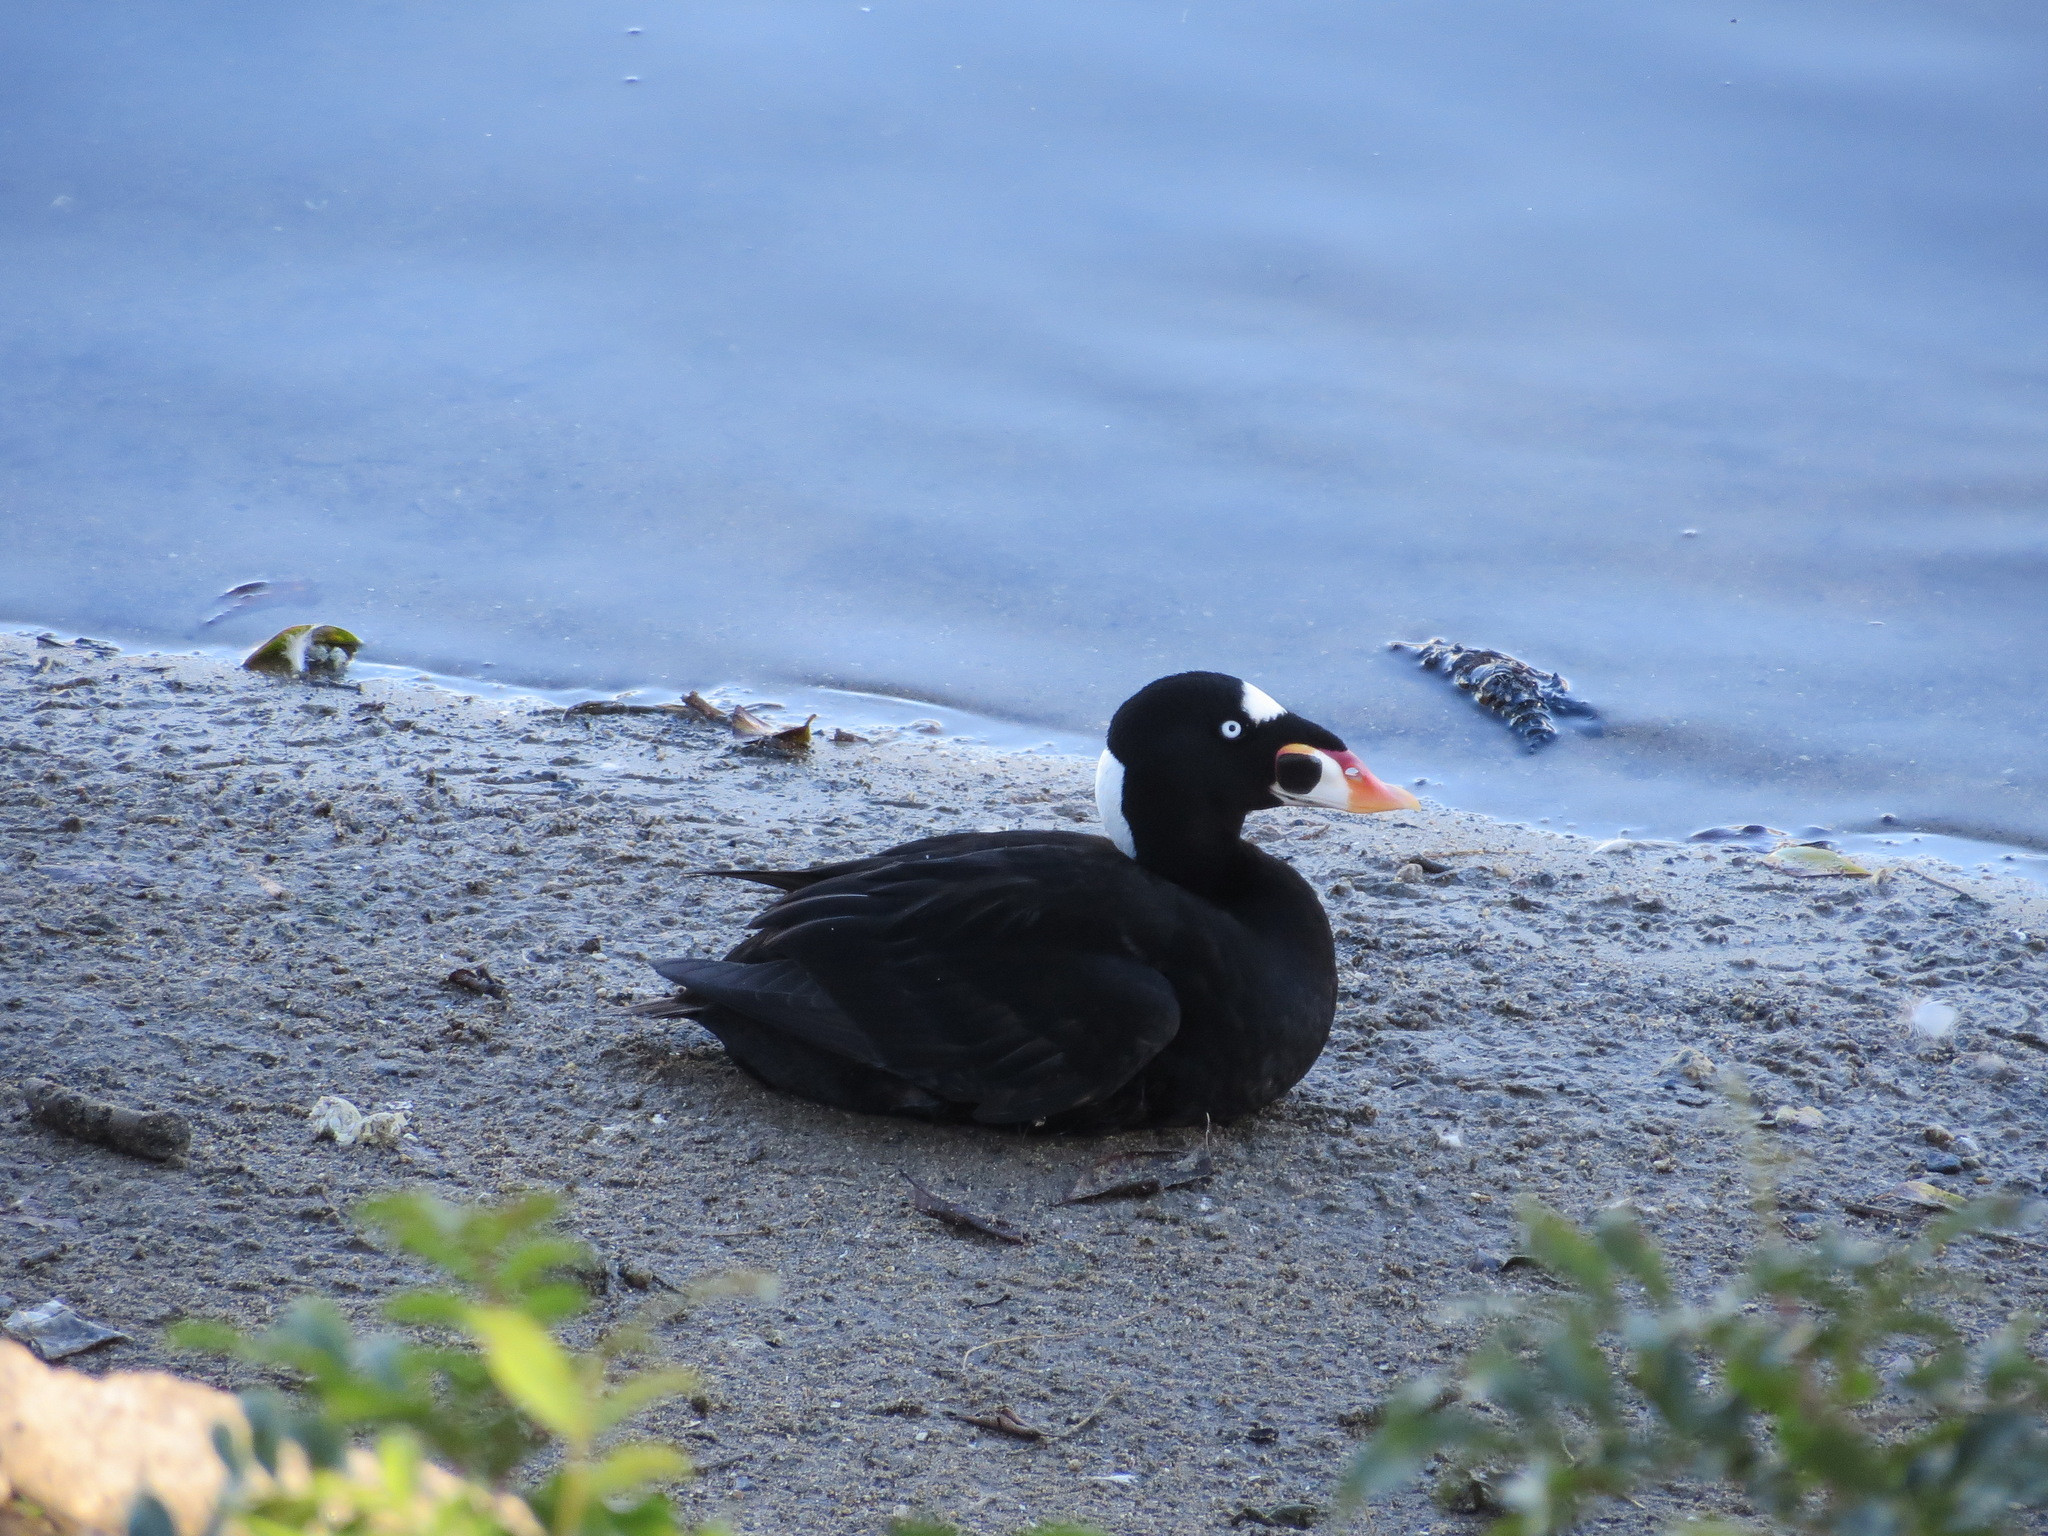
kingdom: Animalia
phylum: Chordata
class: Aves
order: Anseriformes
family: Anatidae
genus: Melanitta
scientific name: Melanitta perspicillata
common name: Surf scoter
